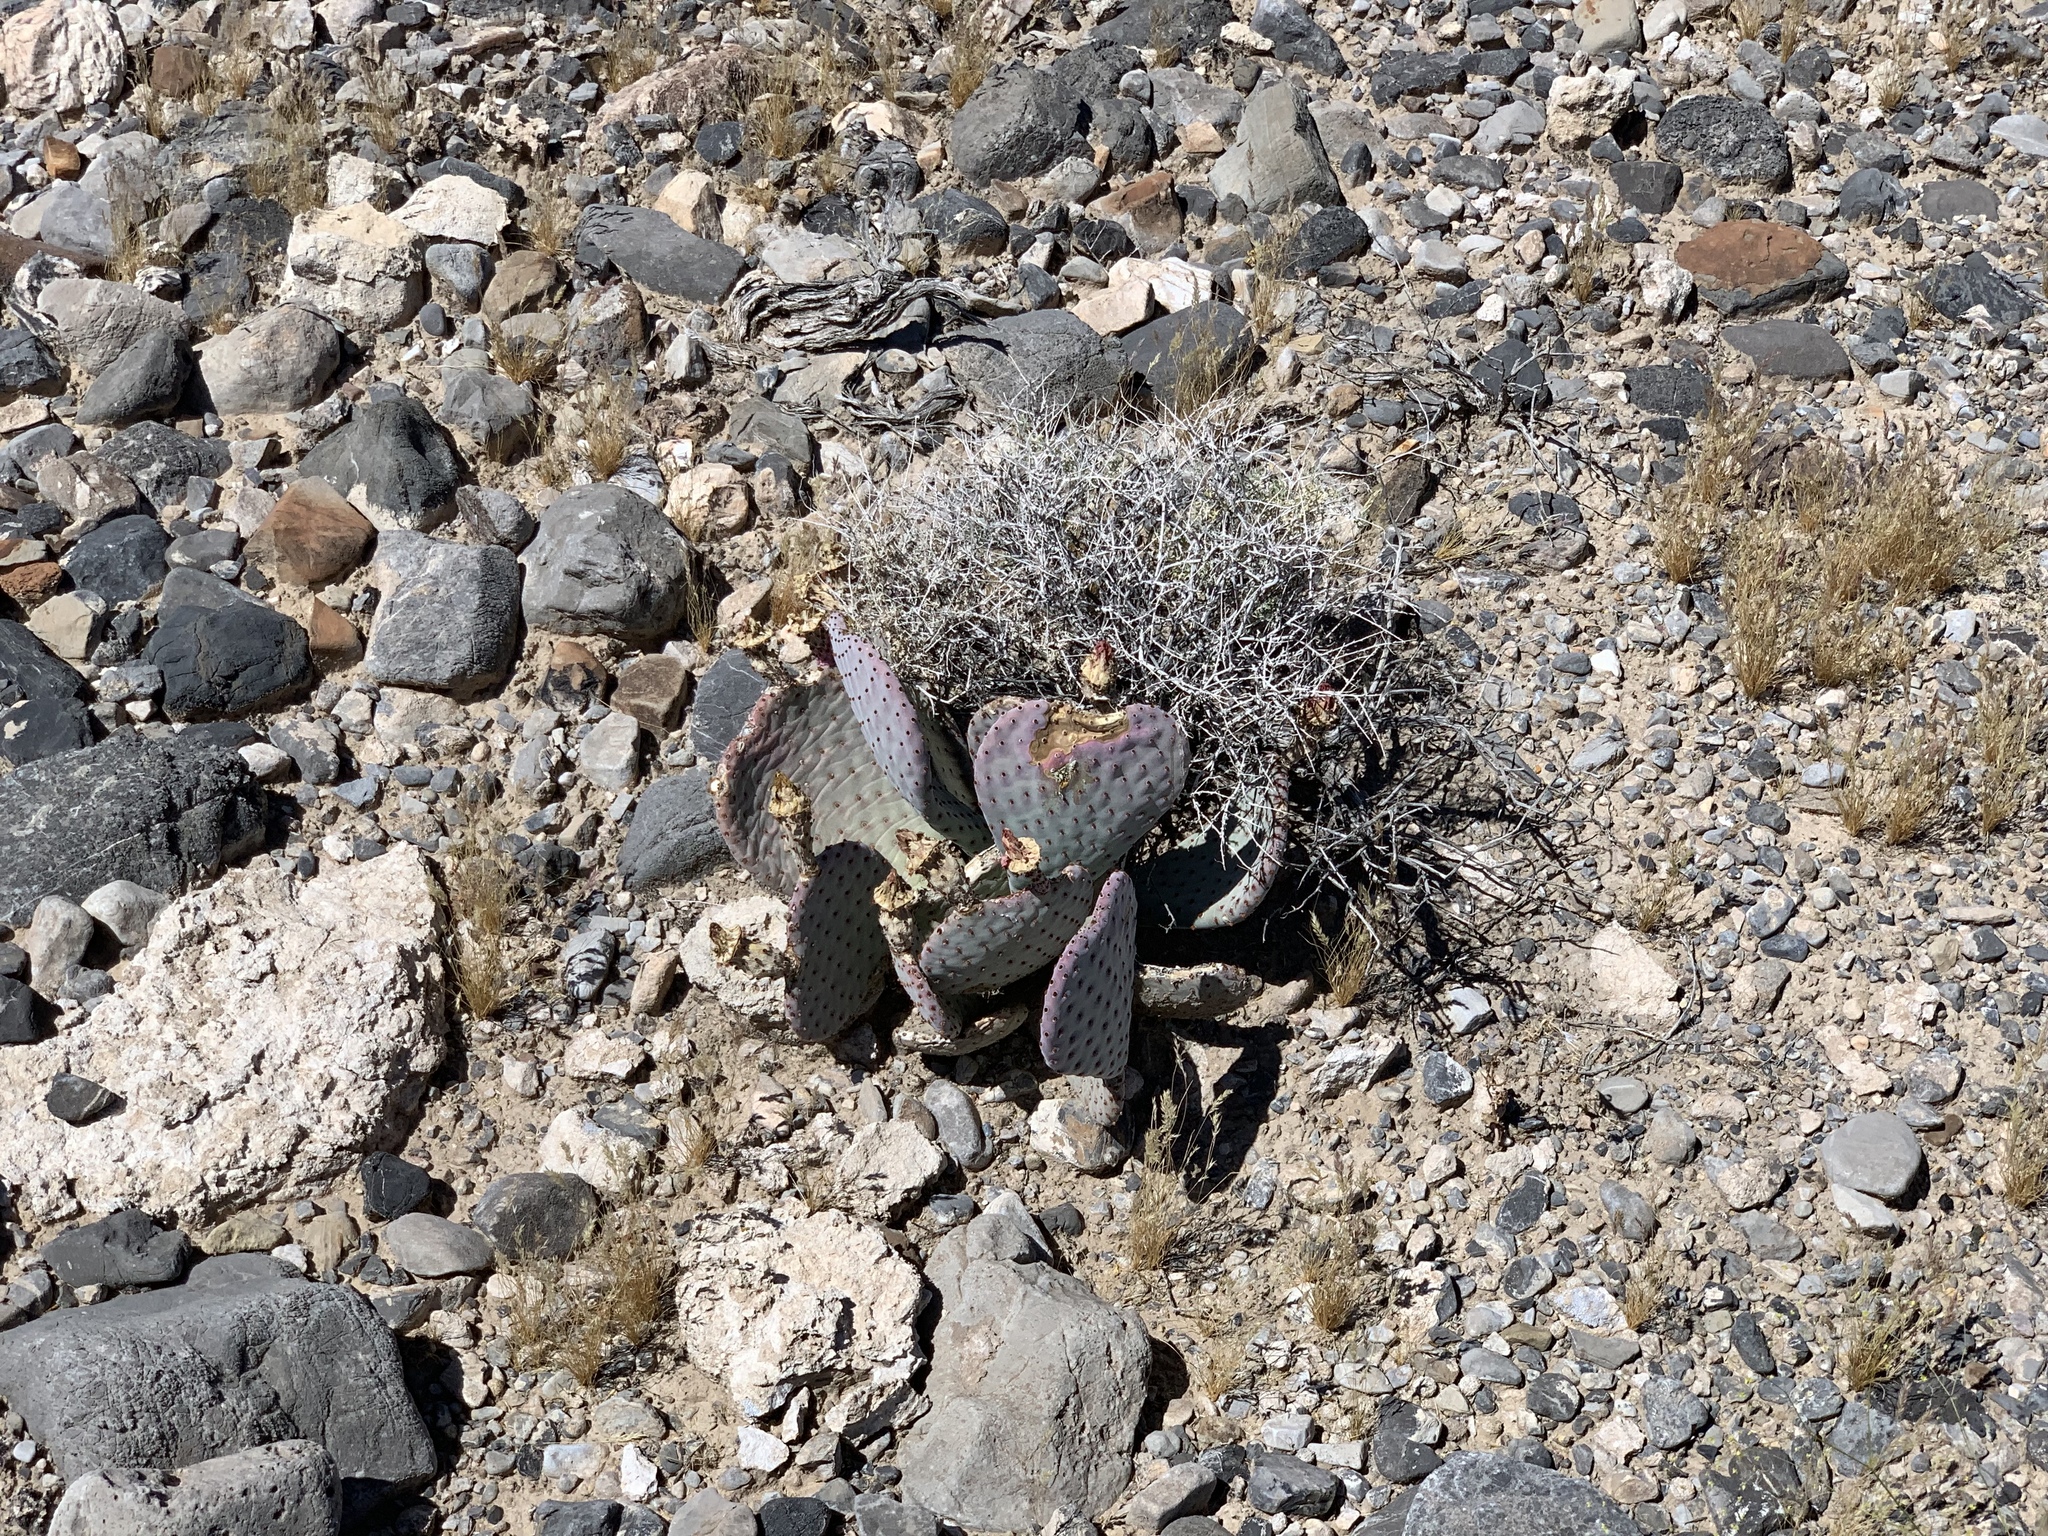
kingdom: Plantae
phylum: Tracheophyta
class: Magnoliopsida
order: Caryophyllales
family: Cactaceae
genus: Opuntia
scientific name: Opuntia basilaris
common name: Beavertail prickly-pear
